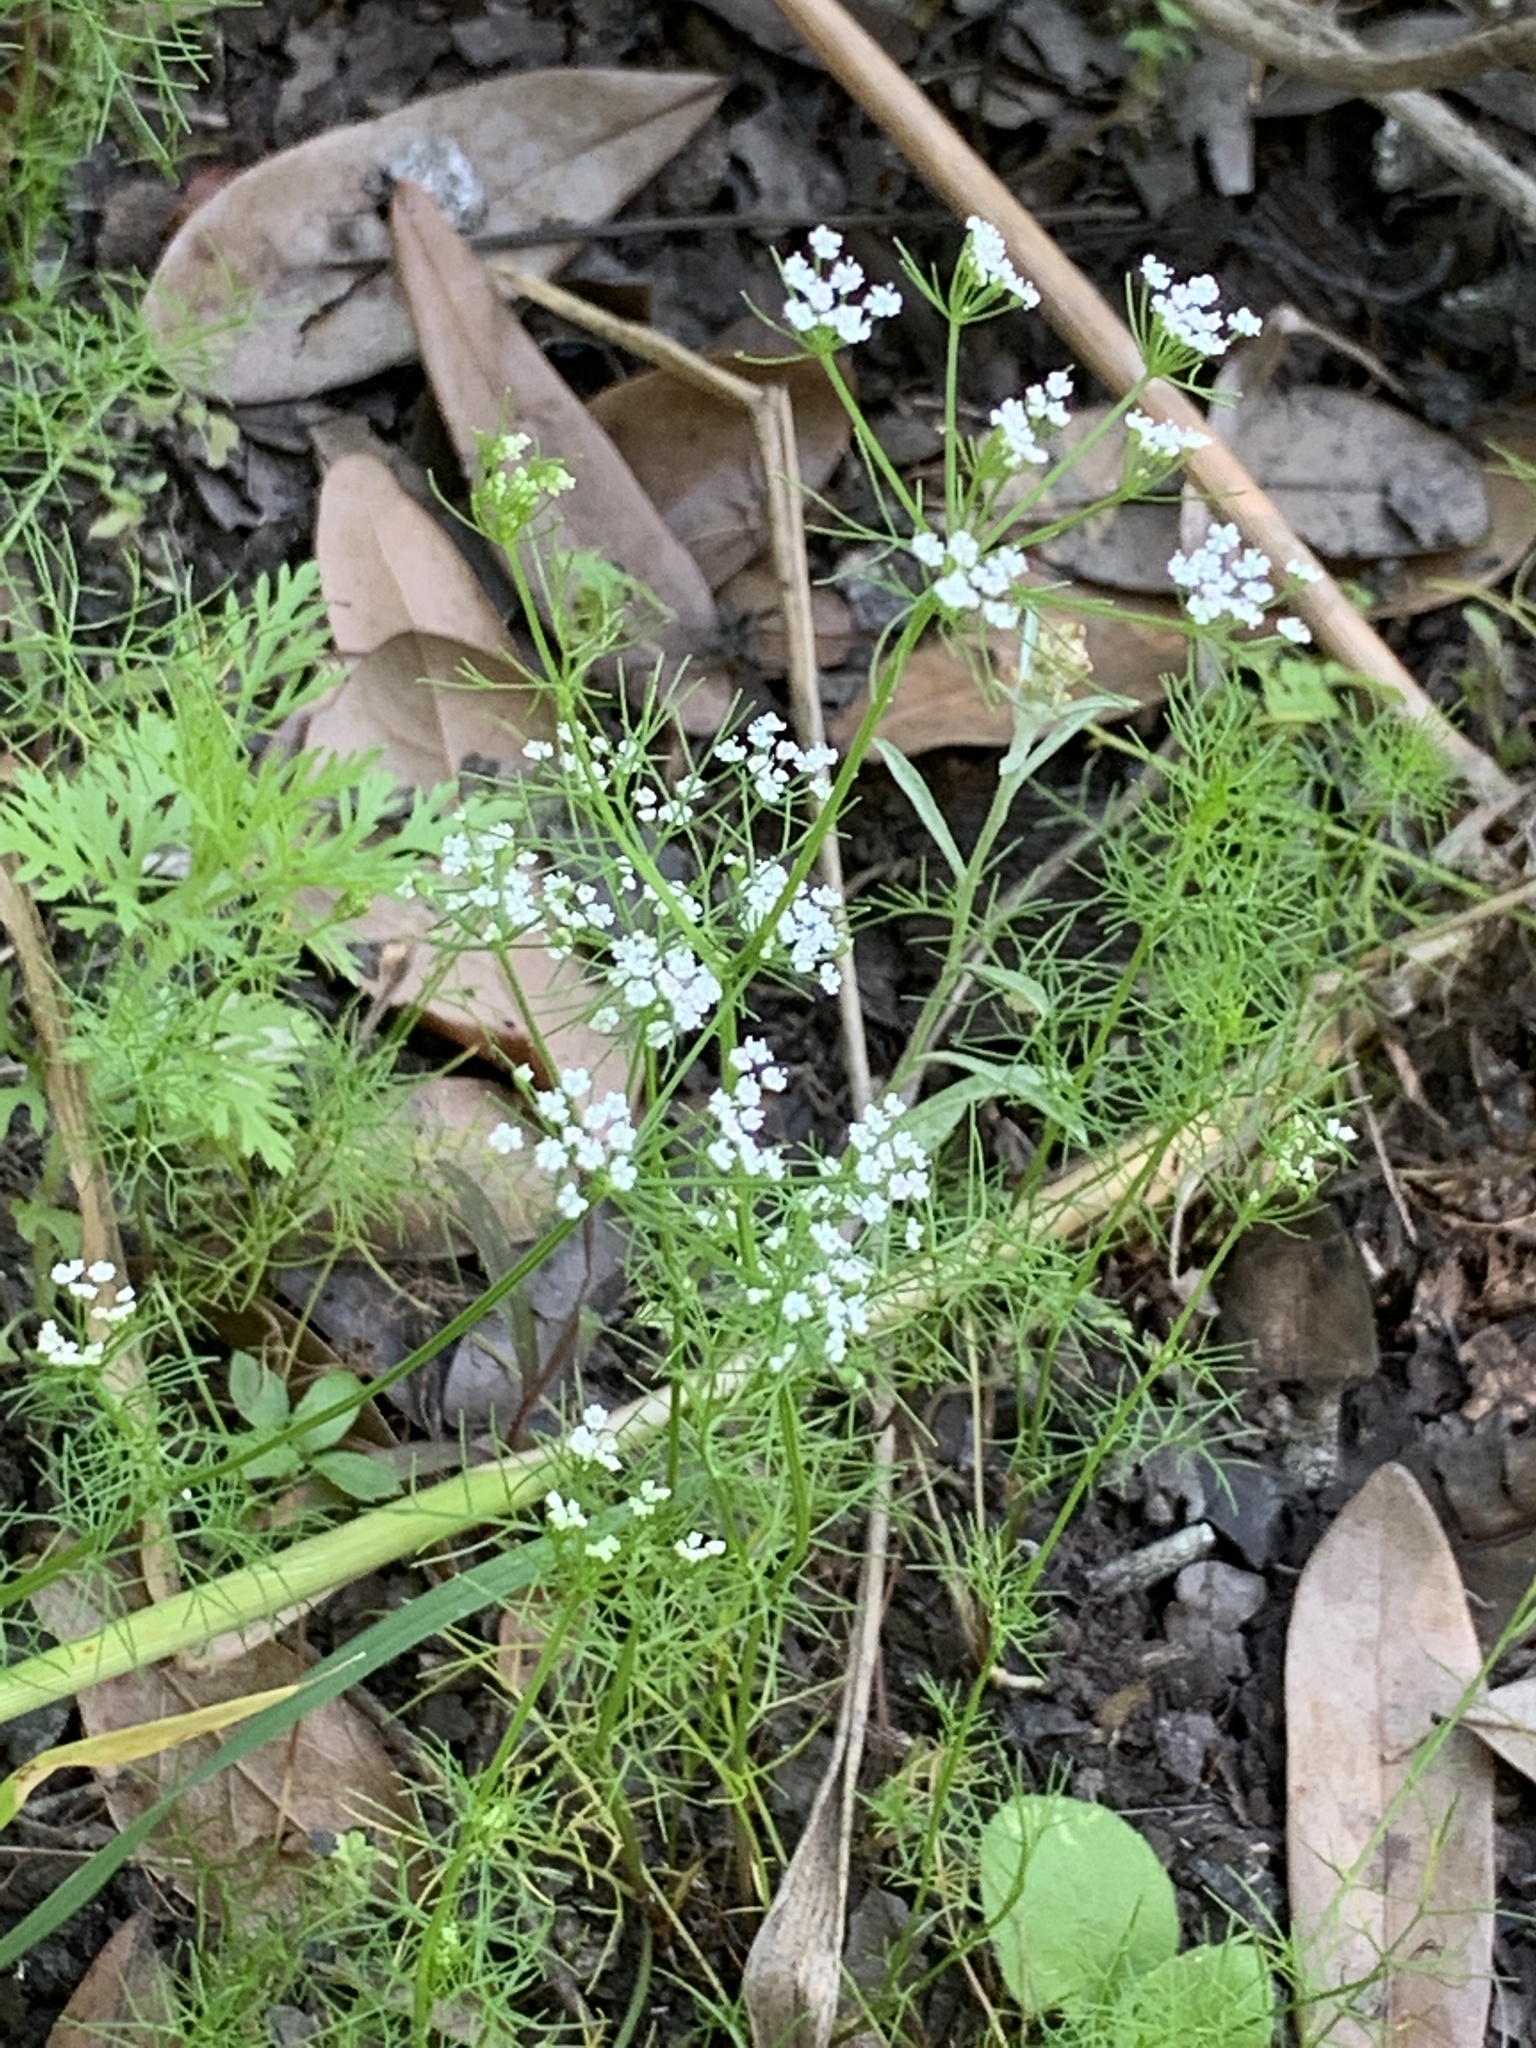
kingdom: Plantae
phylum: Tracheophyta
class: Magnoliopsida
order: Apiales
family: Apiaceae
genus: Ptilimnium
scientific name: Ptilimnium capillaceum
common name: Herbwilliam
